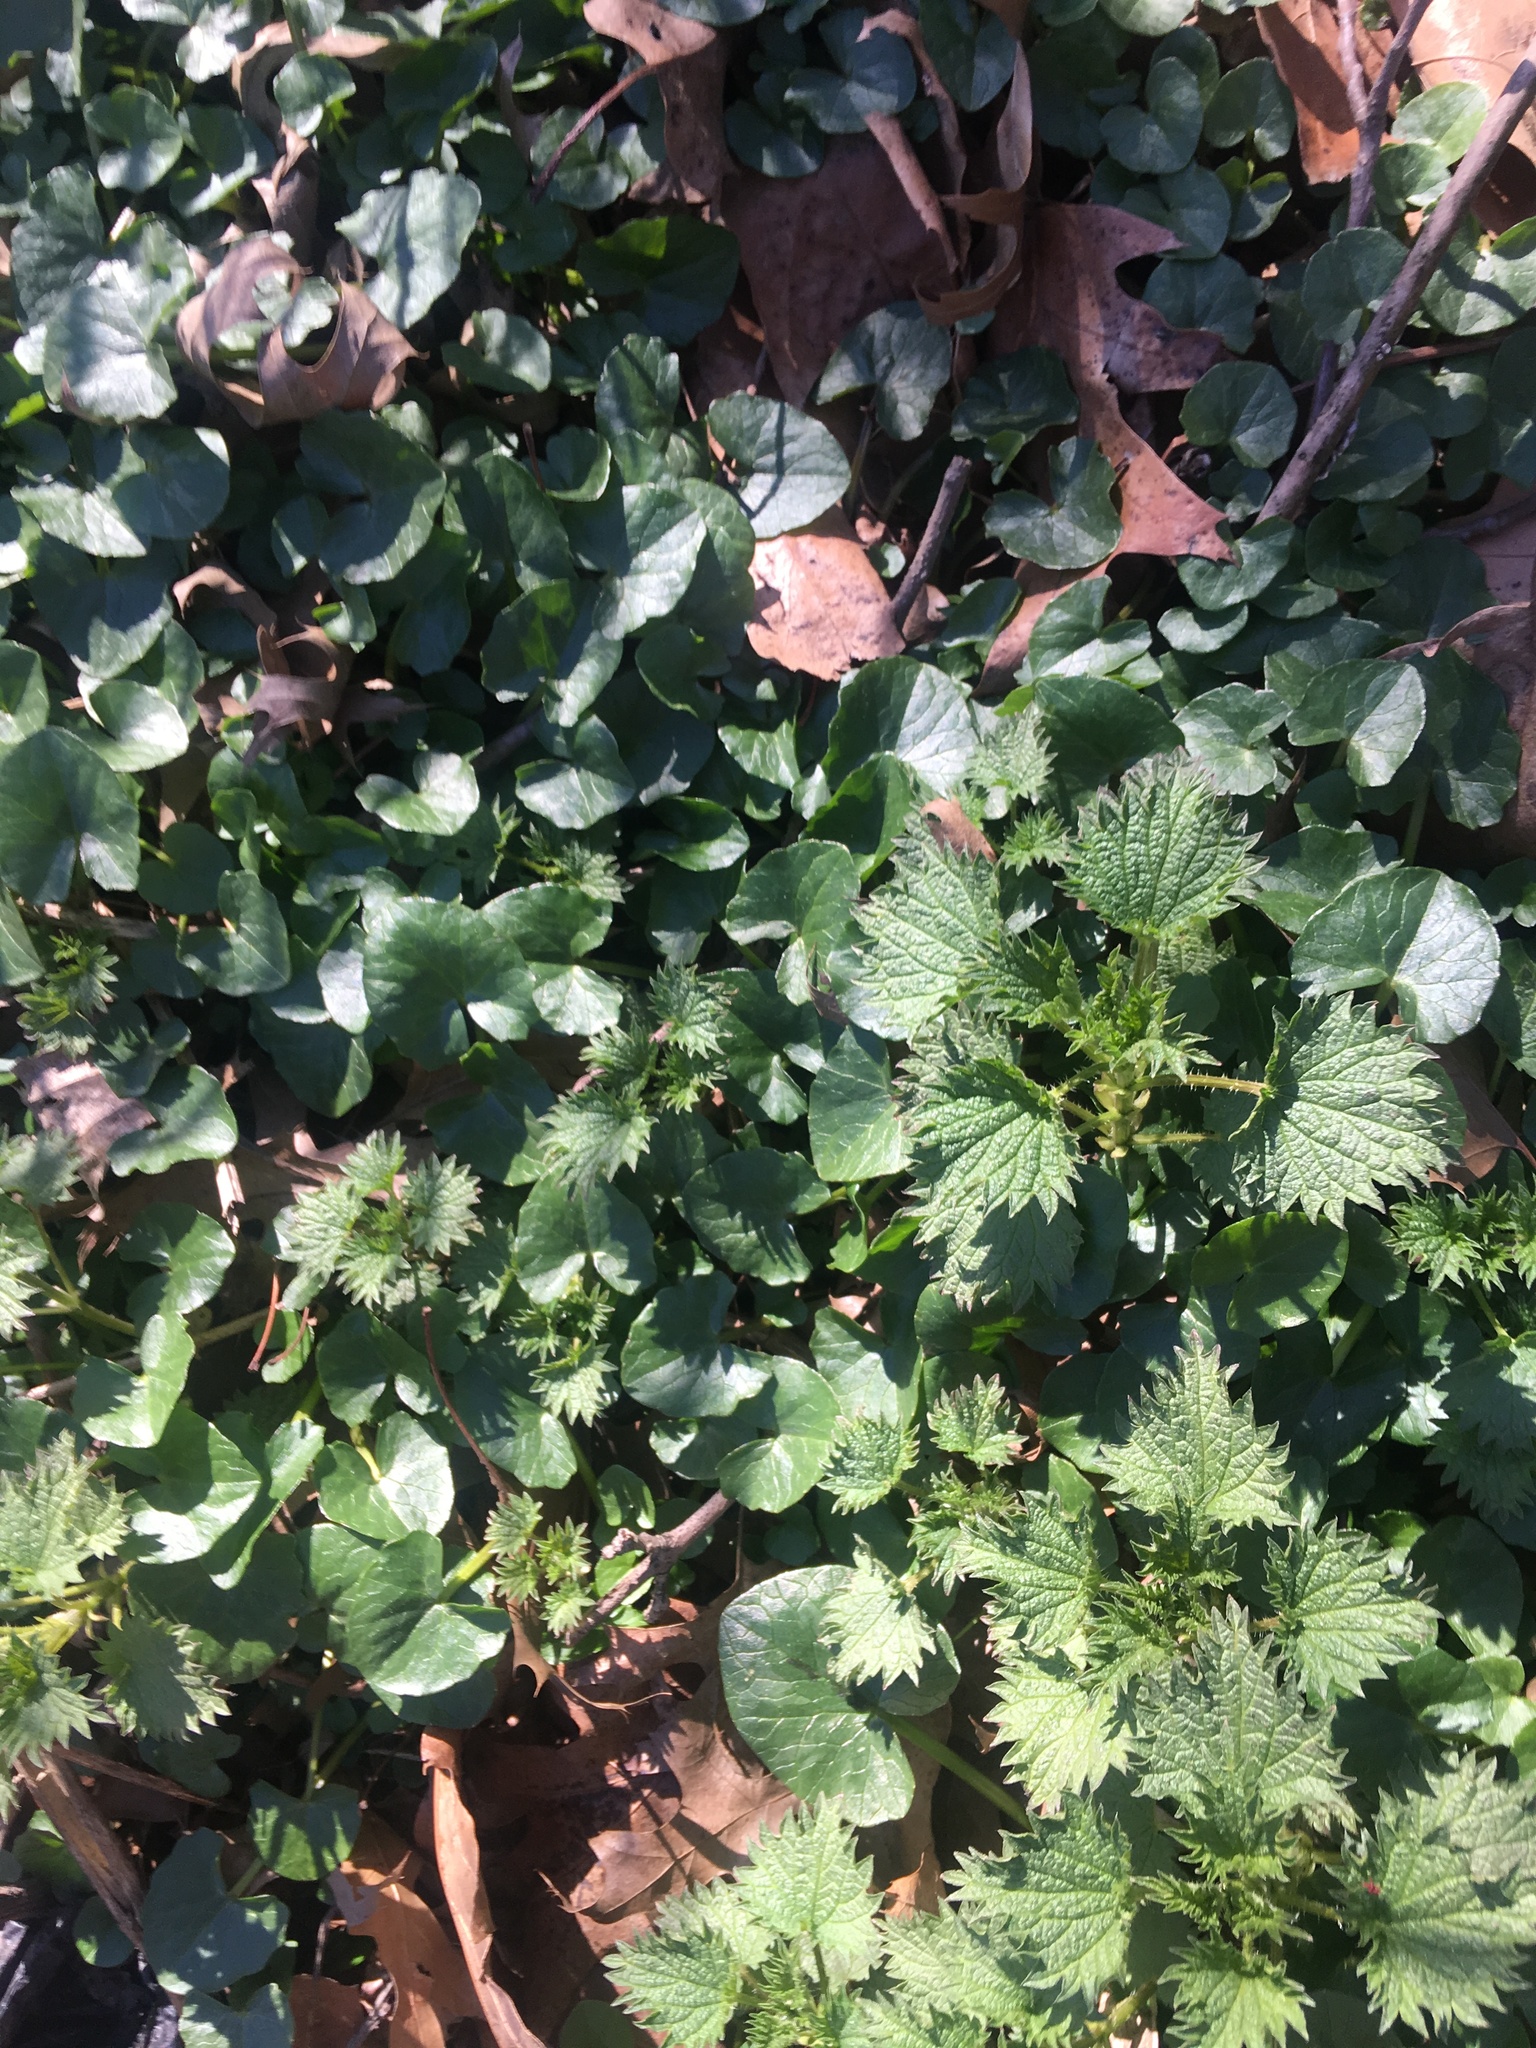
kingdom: Plantae
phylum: Tracheophyta
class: Magnoliopsida
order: Ranunculales
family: Ranunculaceae
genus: Ficaria
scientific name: Ficaria verna
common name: Lesser celandine
